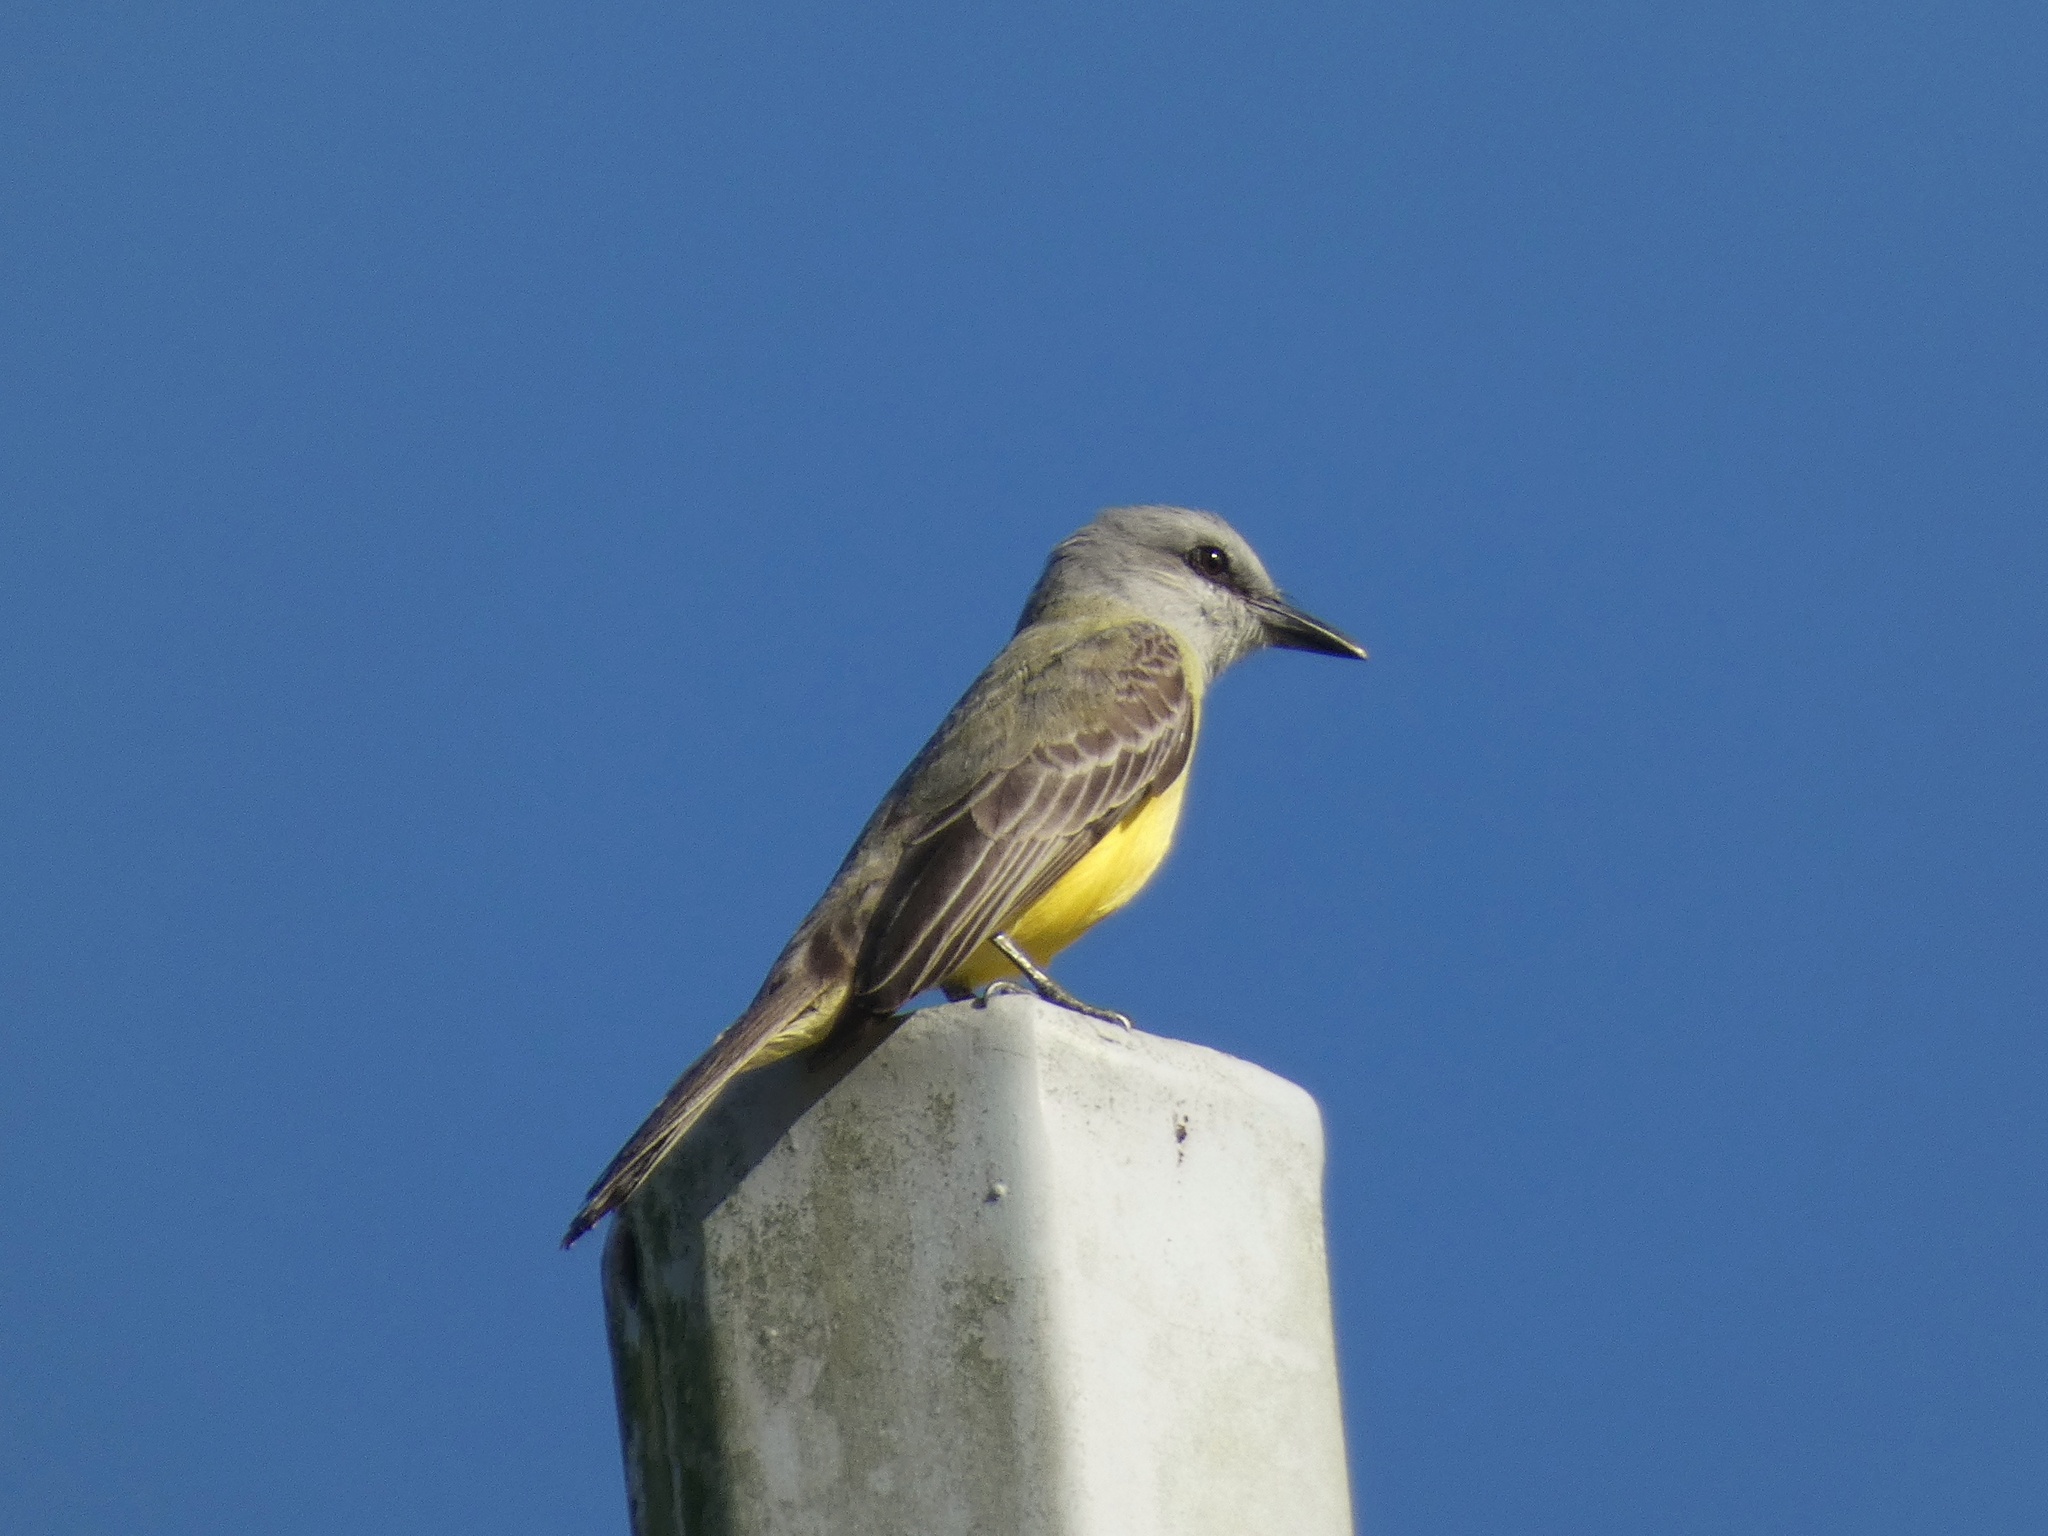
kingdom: Animalia
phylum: Chordata
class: Aves
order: Passeriformes
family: Tyrannidae
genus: Tyrannus
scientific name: Tyrannus melancholicus
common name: Tropical kingbird
